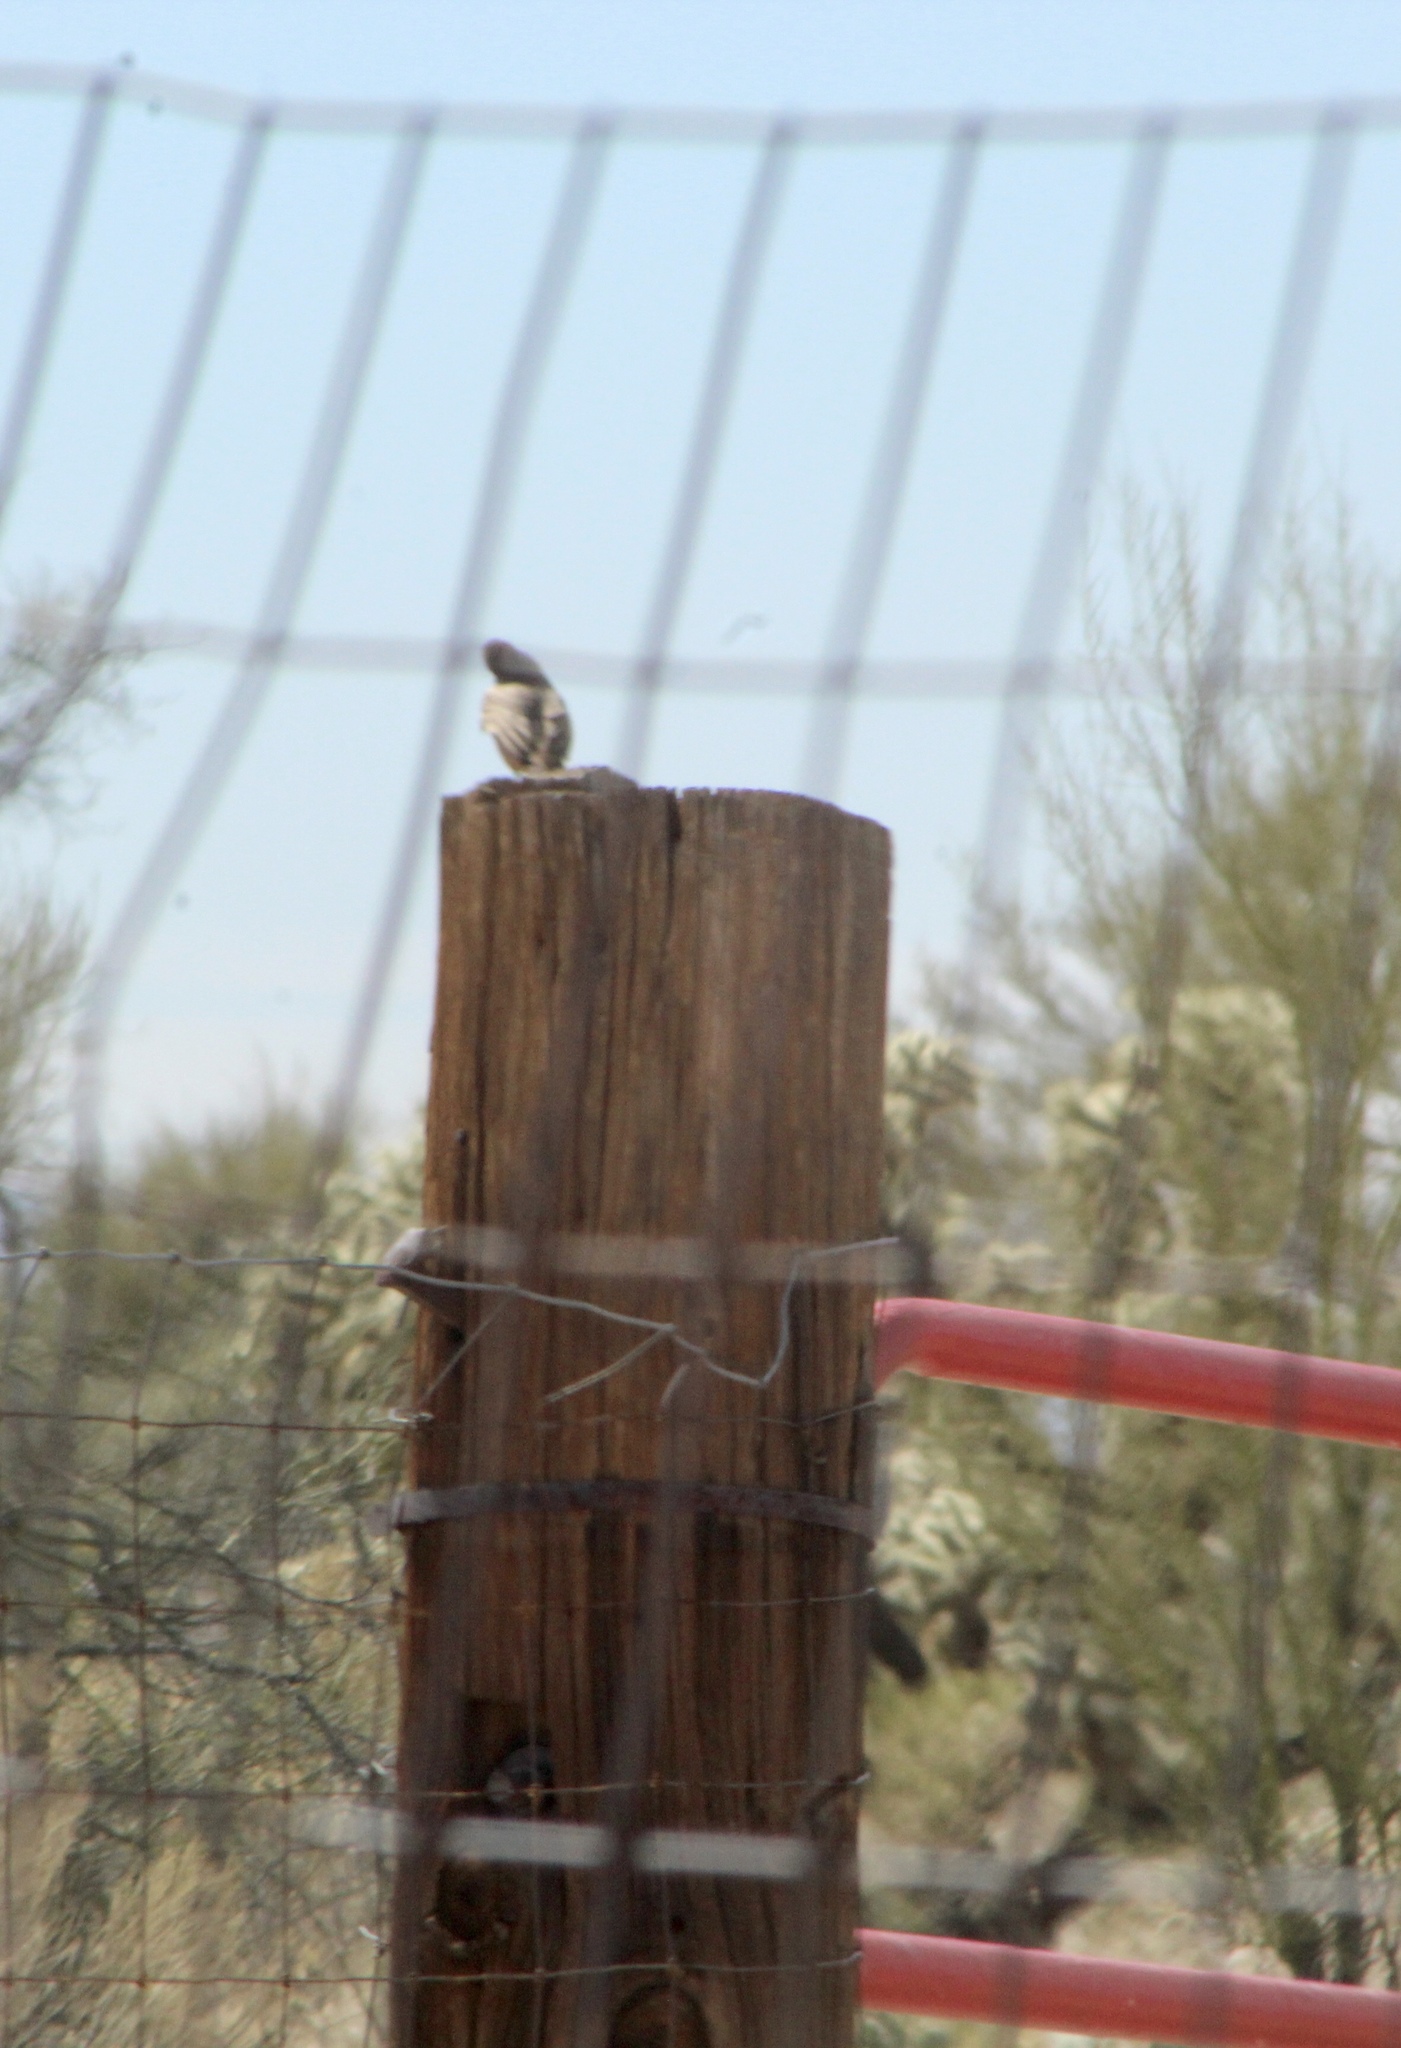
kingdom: Animalia
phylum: Chordata
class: Aves
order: Passeriformes
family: Tyrannidae
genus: Sayornis
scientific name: Sayornis saya
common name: Say's phoebe
